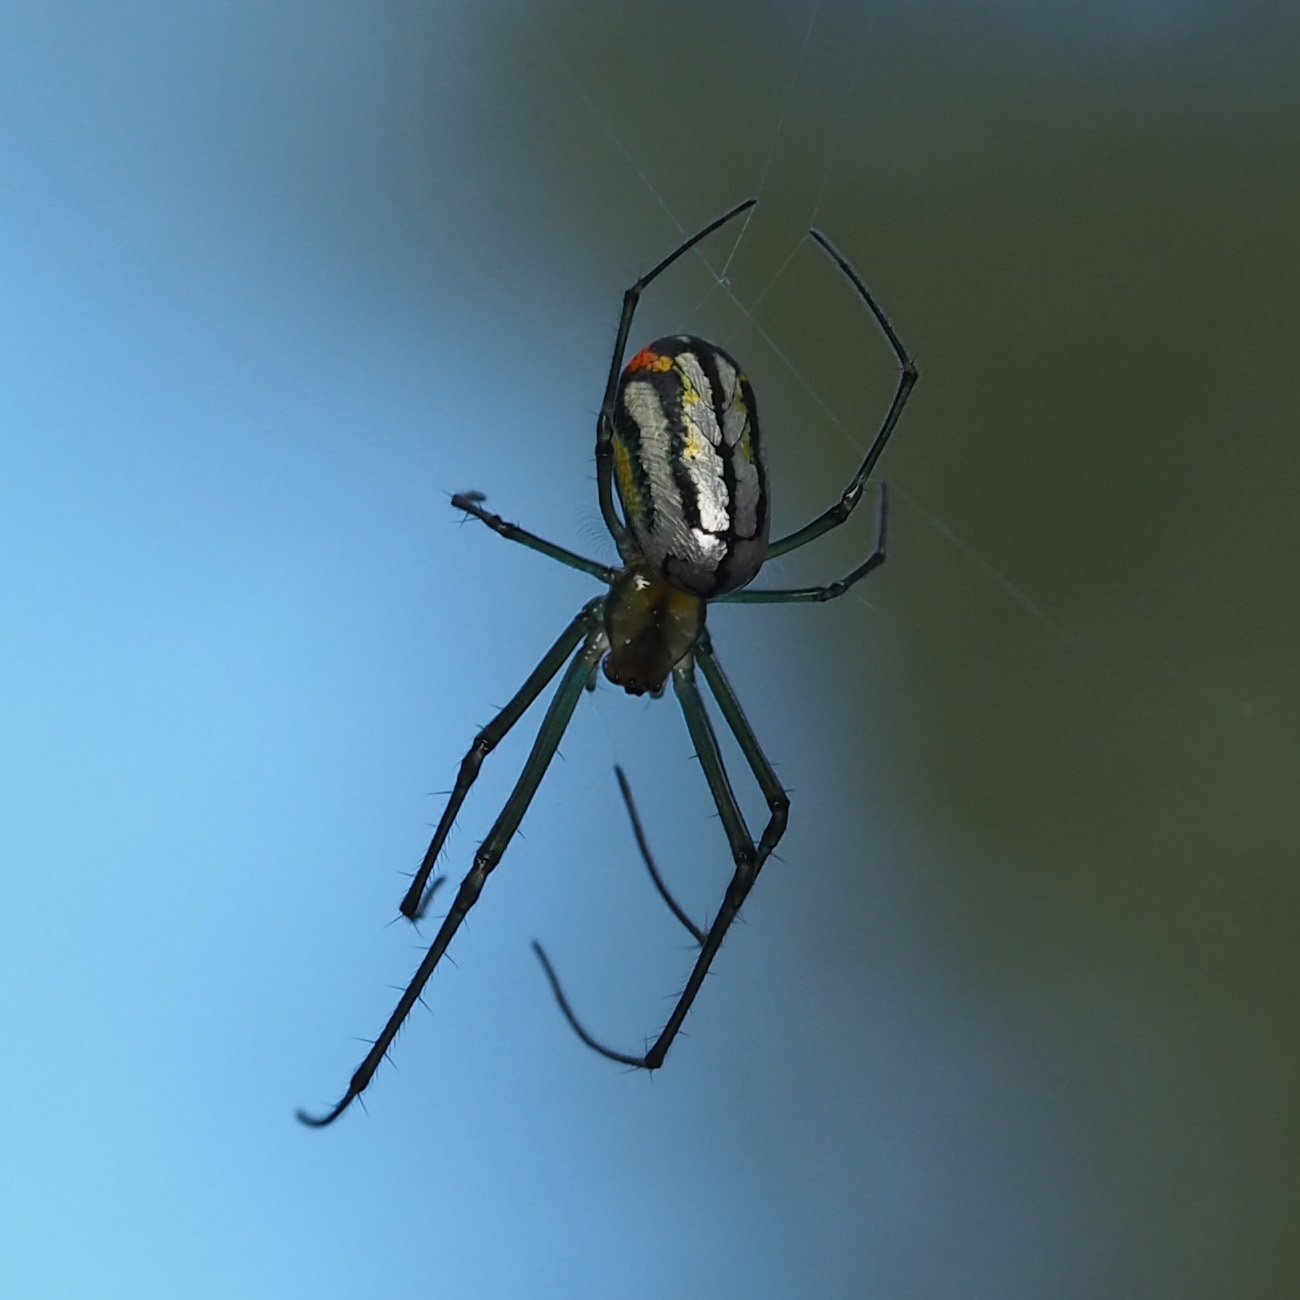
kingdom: Animalia
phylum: Arthropoda
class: Arachnida
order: Araneae
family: Tetragnathidae
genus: Leucauge
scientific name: Leucauge argyrobapta
